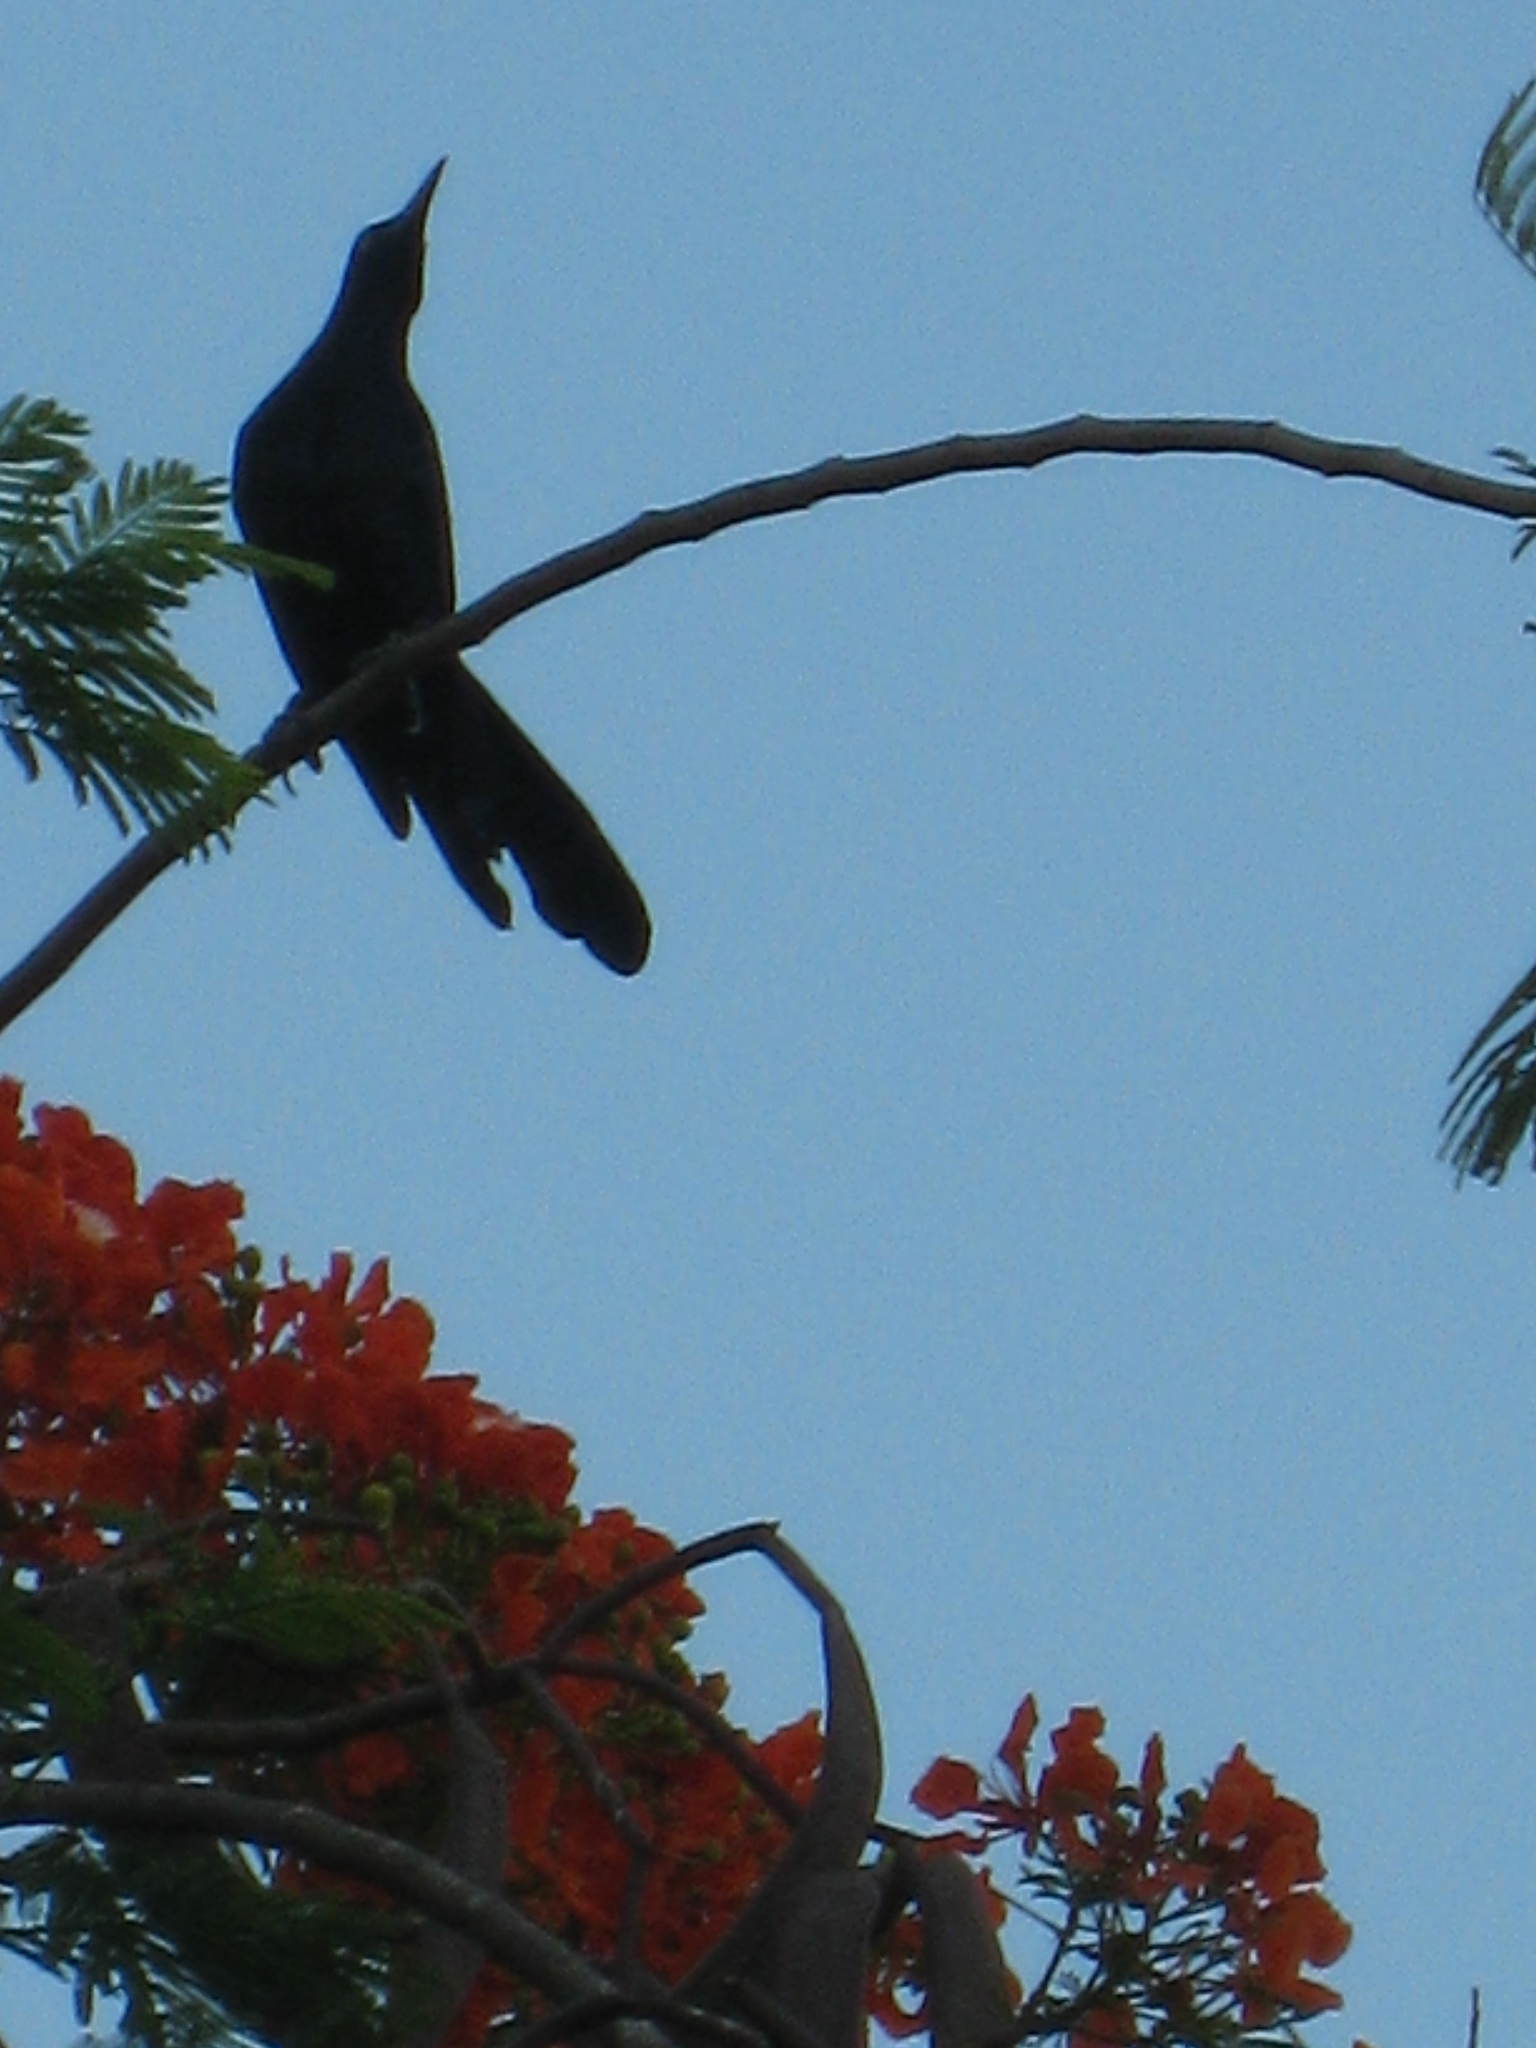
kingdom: Animalia
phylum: Chordata
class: Aves
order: Passeriformes
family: Icteridae
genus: Quiscalus
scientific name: Quiscalus mexicanus
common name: Great-tailed grackle
